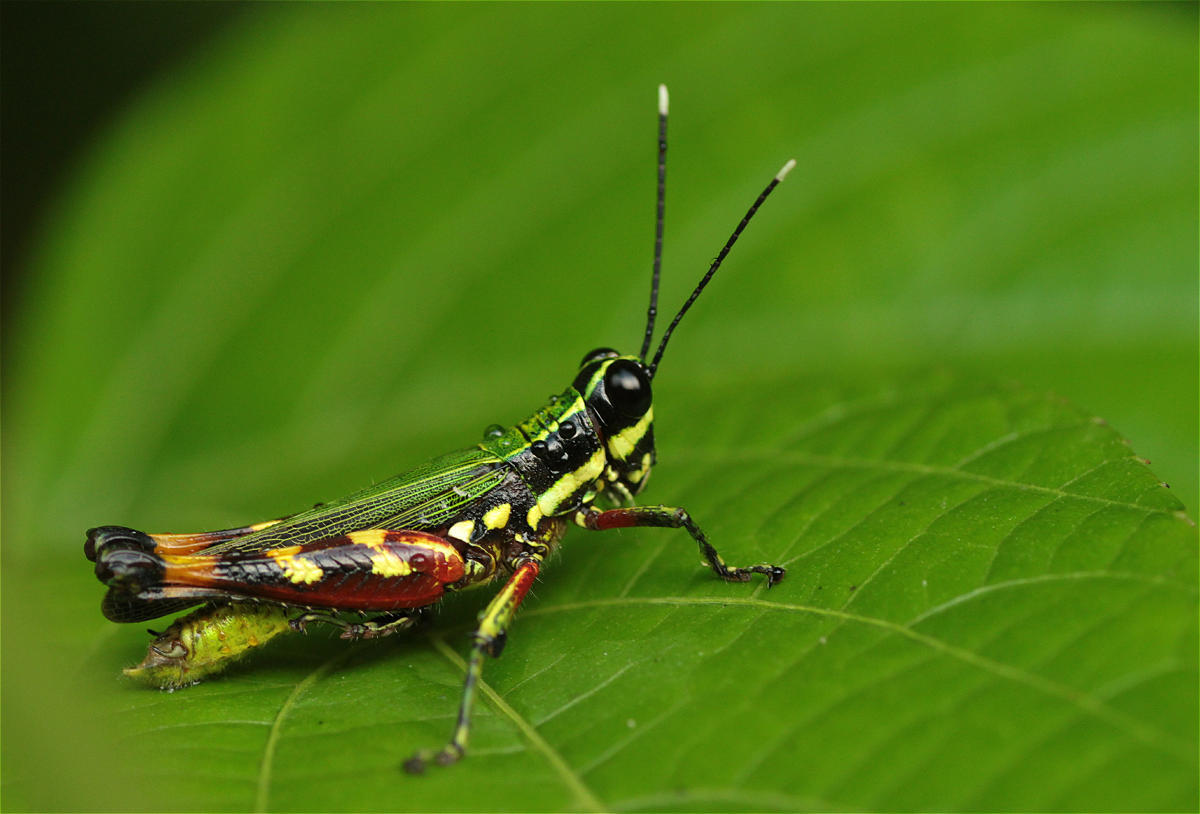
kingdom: Animalia
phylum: Arthropoda
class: Insecta
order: Orthoptera
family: Acrididae
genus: Tetrataenia
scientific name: Tetrataenia surinama
